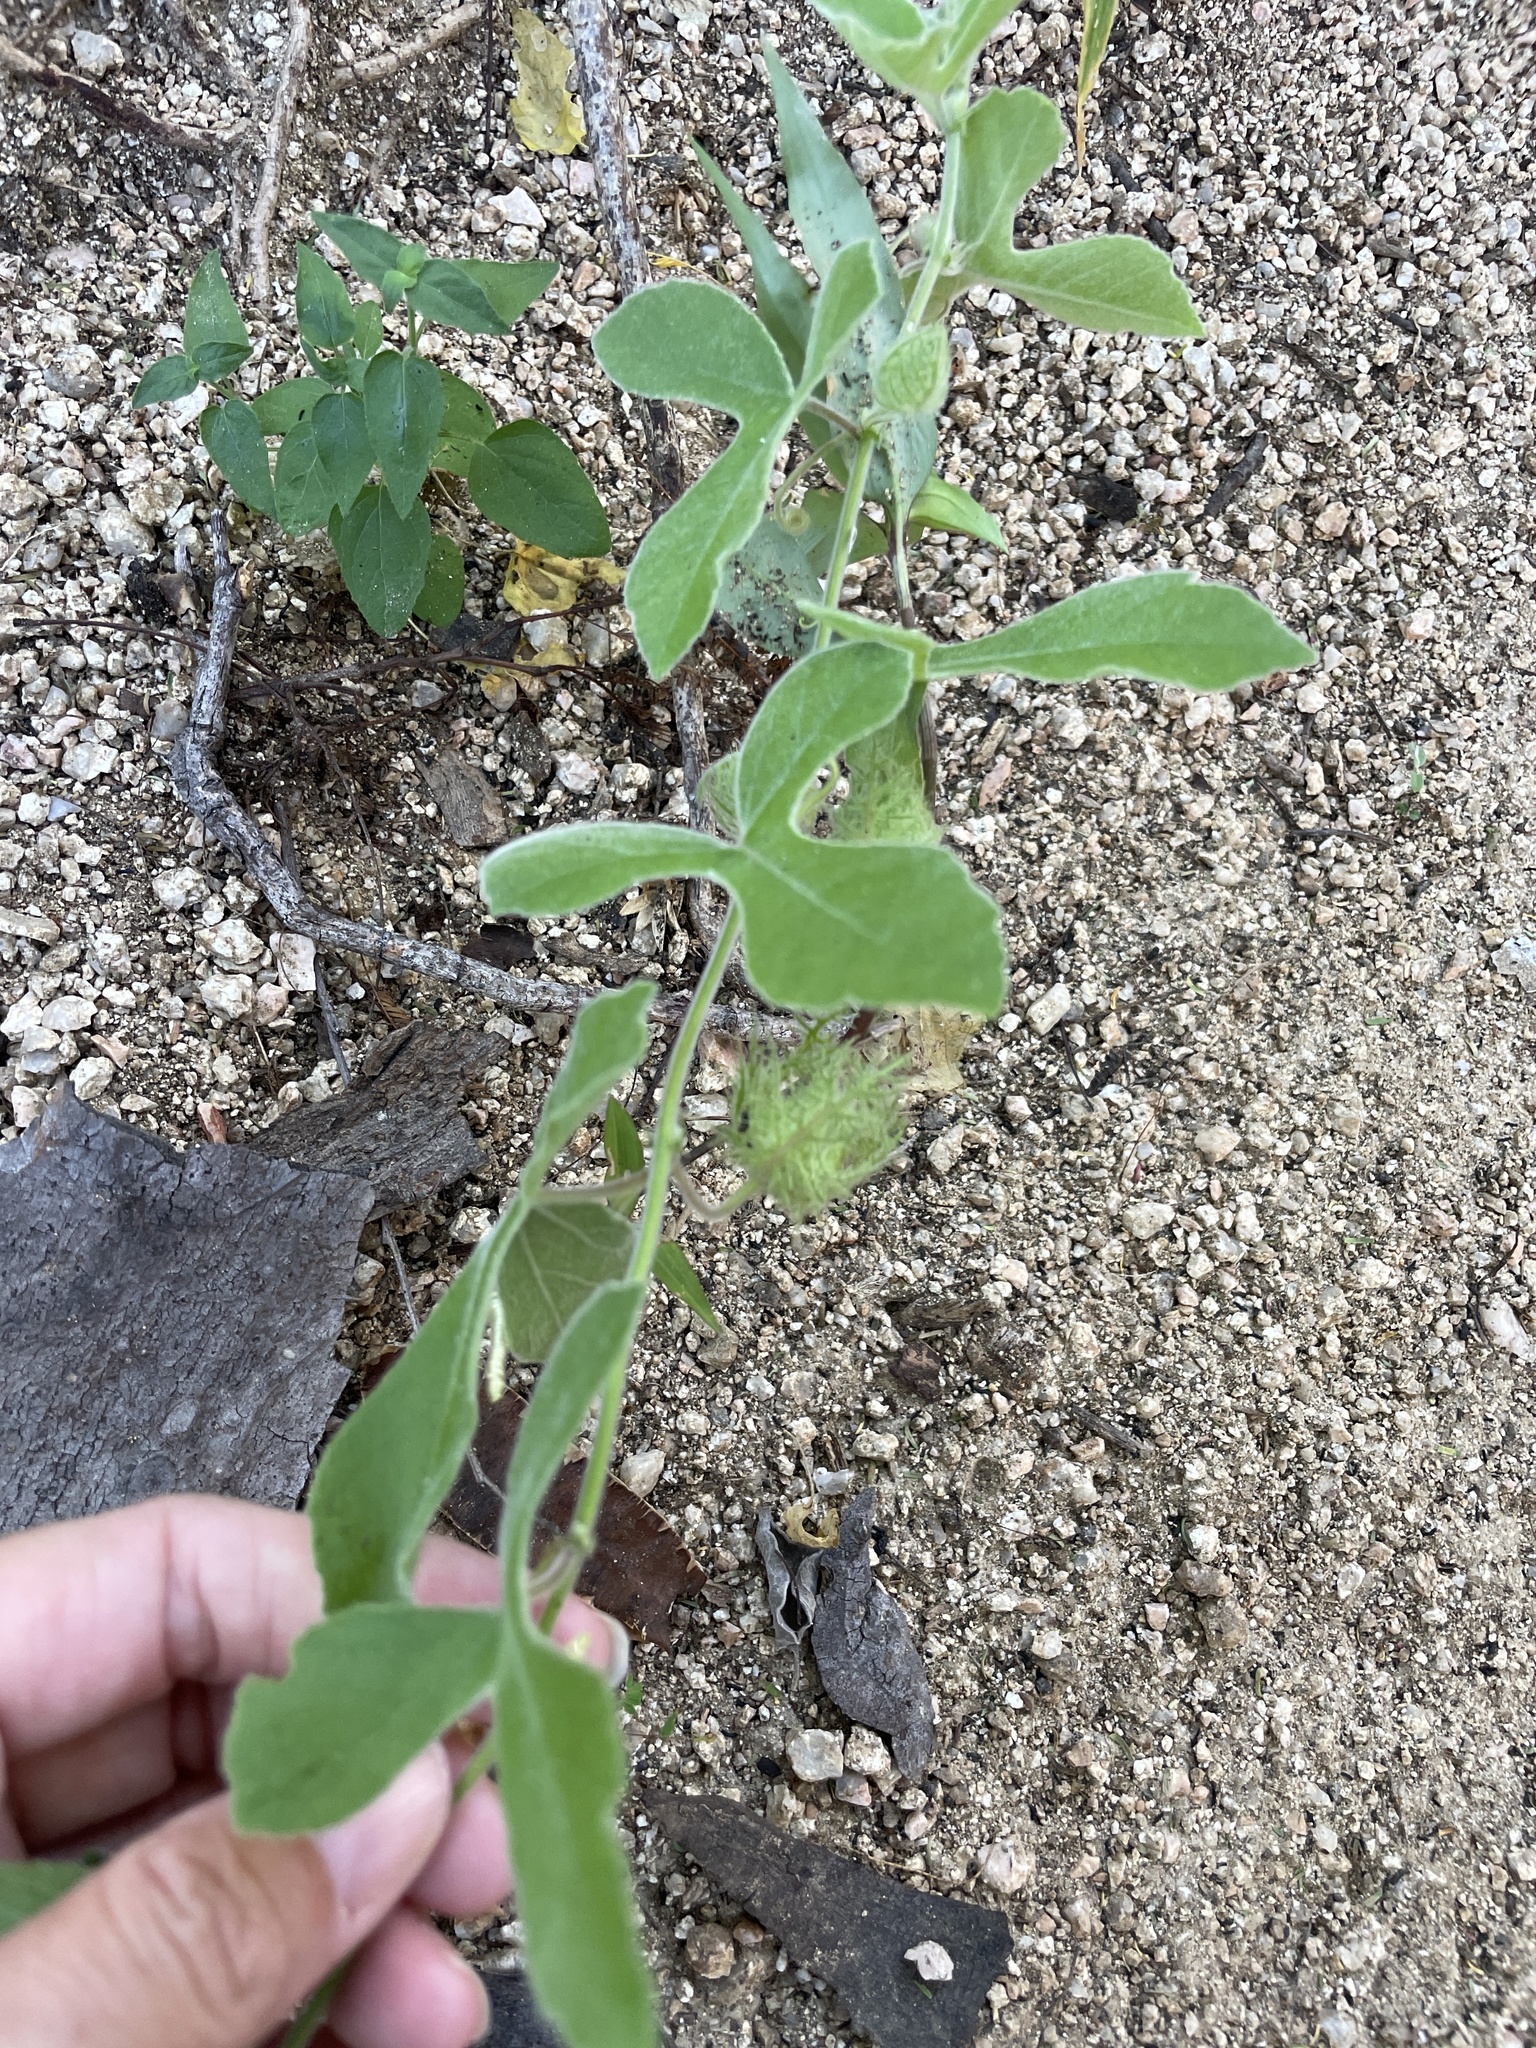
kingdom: Plantae
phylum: Tracheophyta
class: Magnoliopsida
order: Malpighiales
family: Passifloraceae
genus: Passiflora
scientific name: Passiflora arida
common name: Desert passionflower
